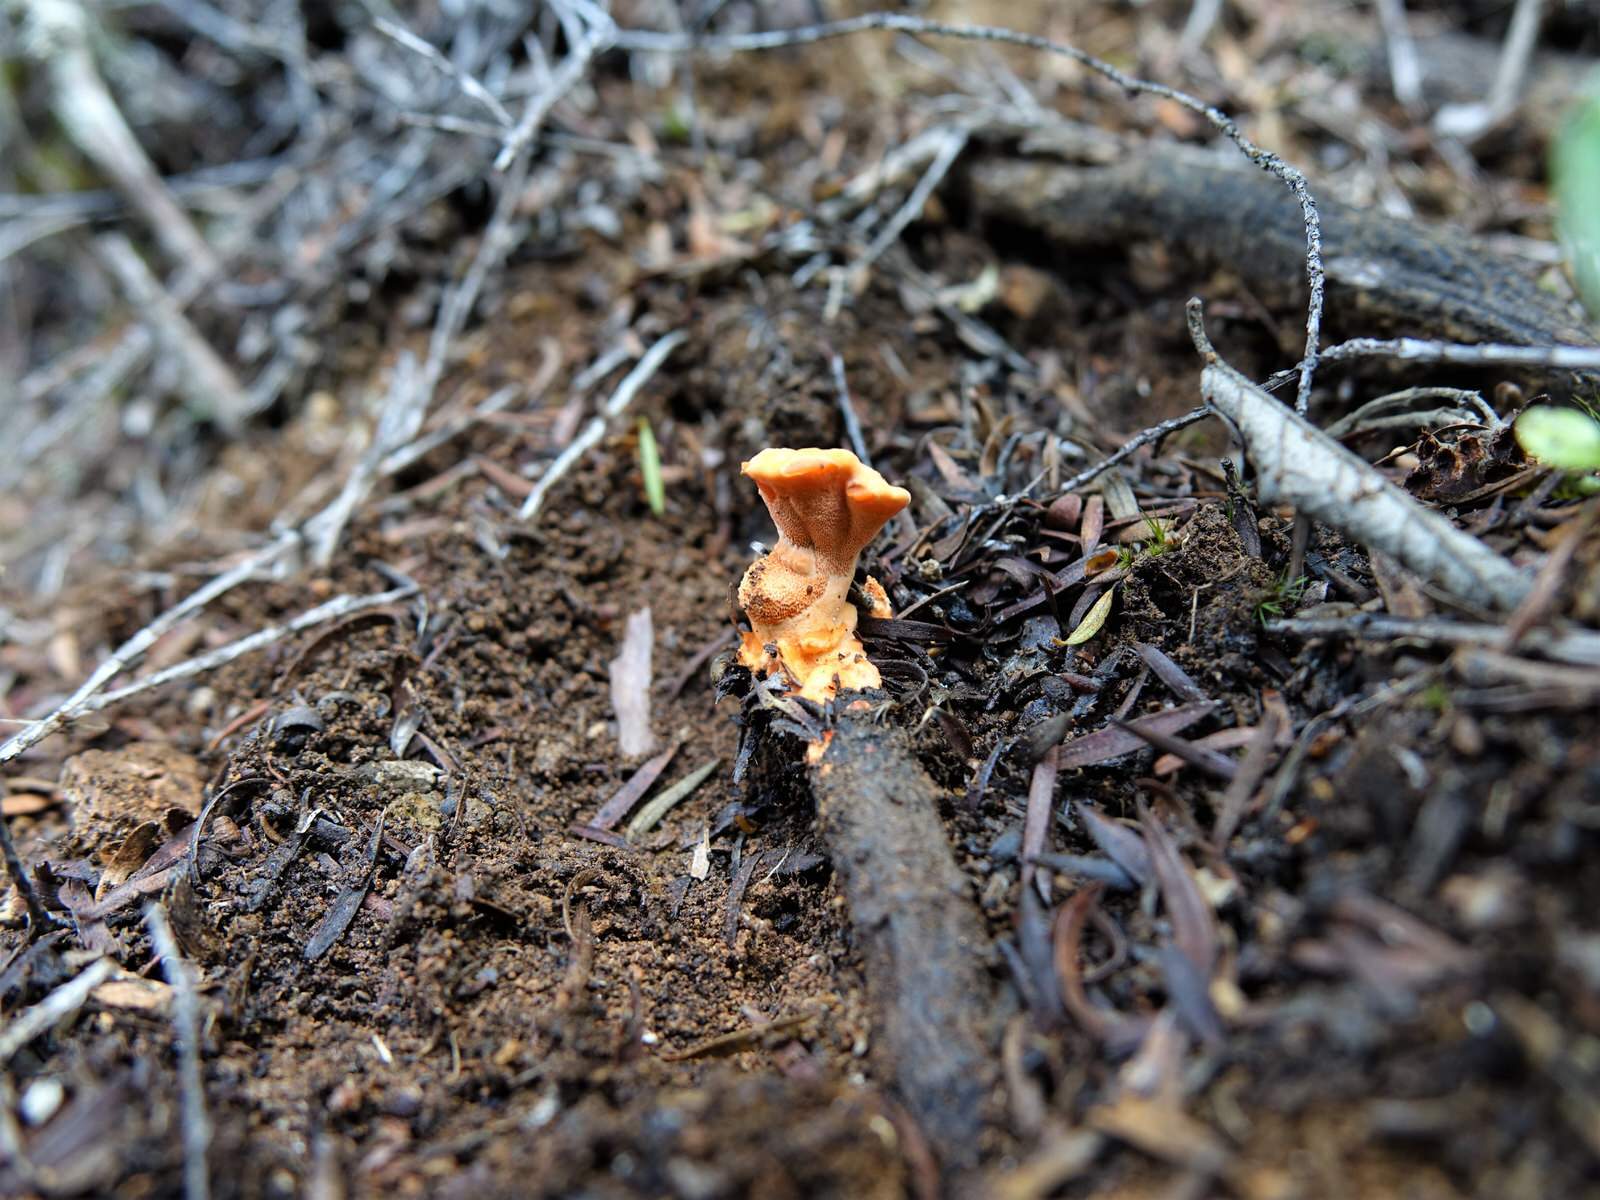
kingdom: Fungi
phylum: Basidiomycota
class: Agaricomycetes
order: Polyporales
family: Polyporaceae
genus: Trametes
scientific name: Trametes coccinea
